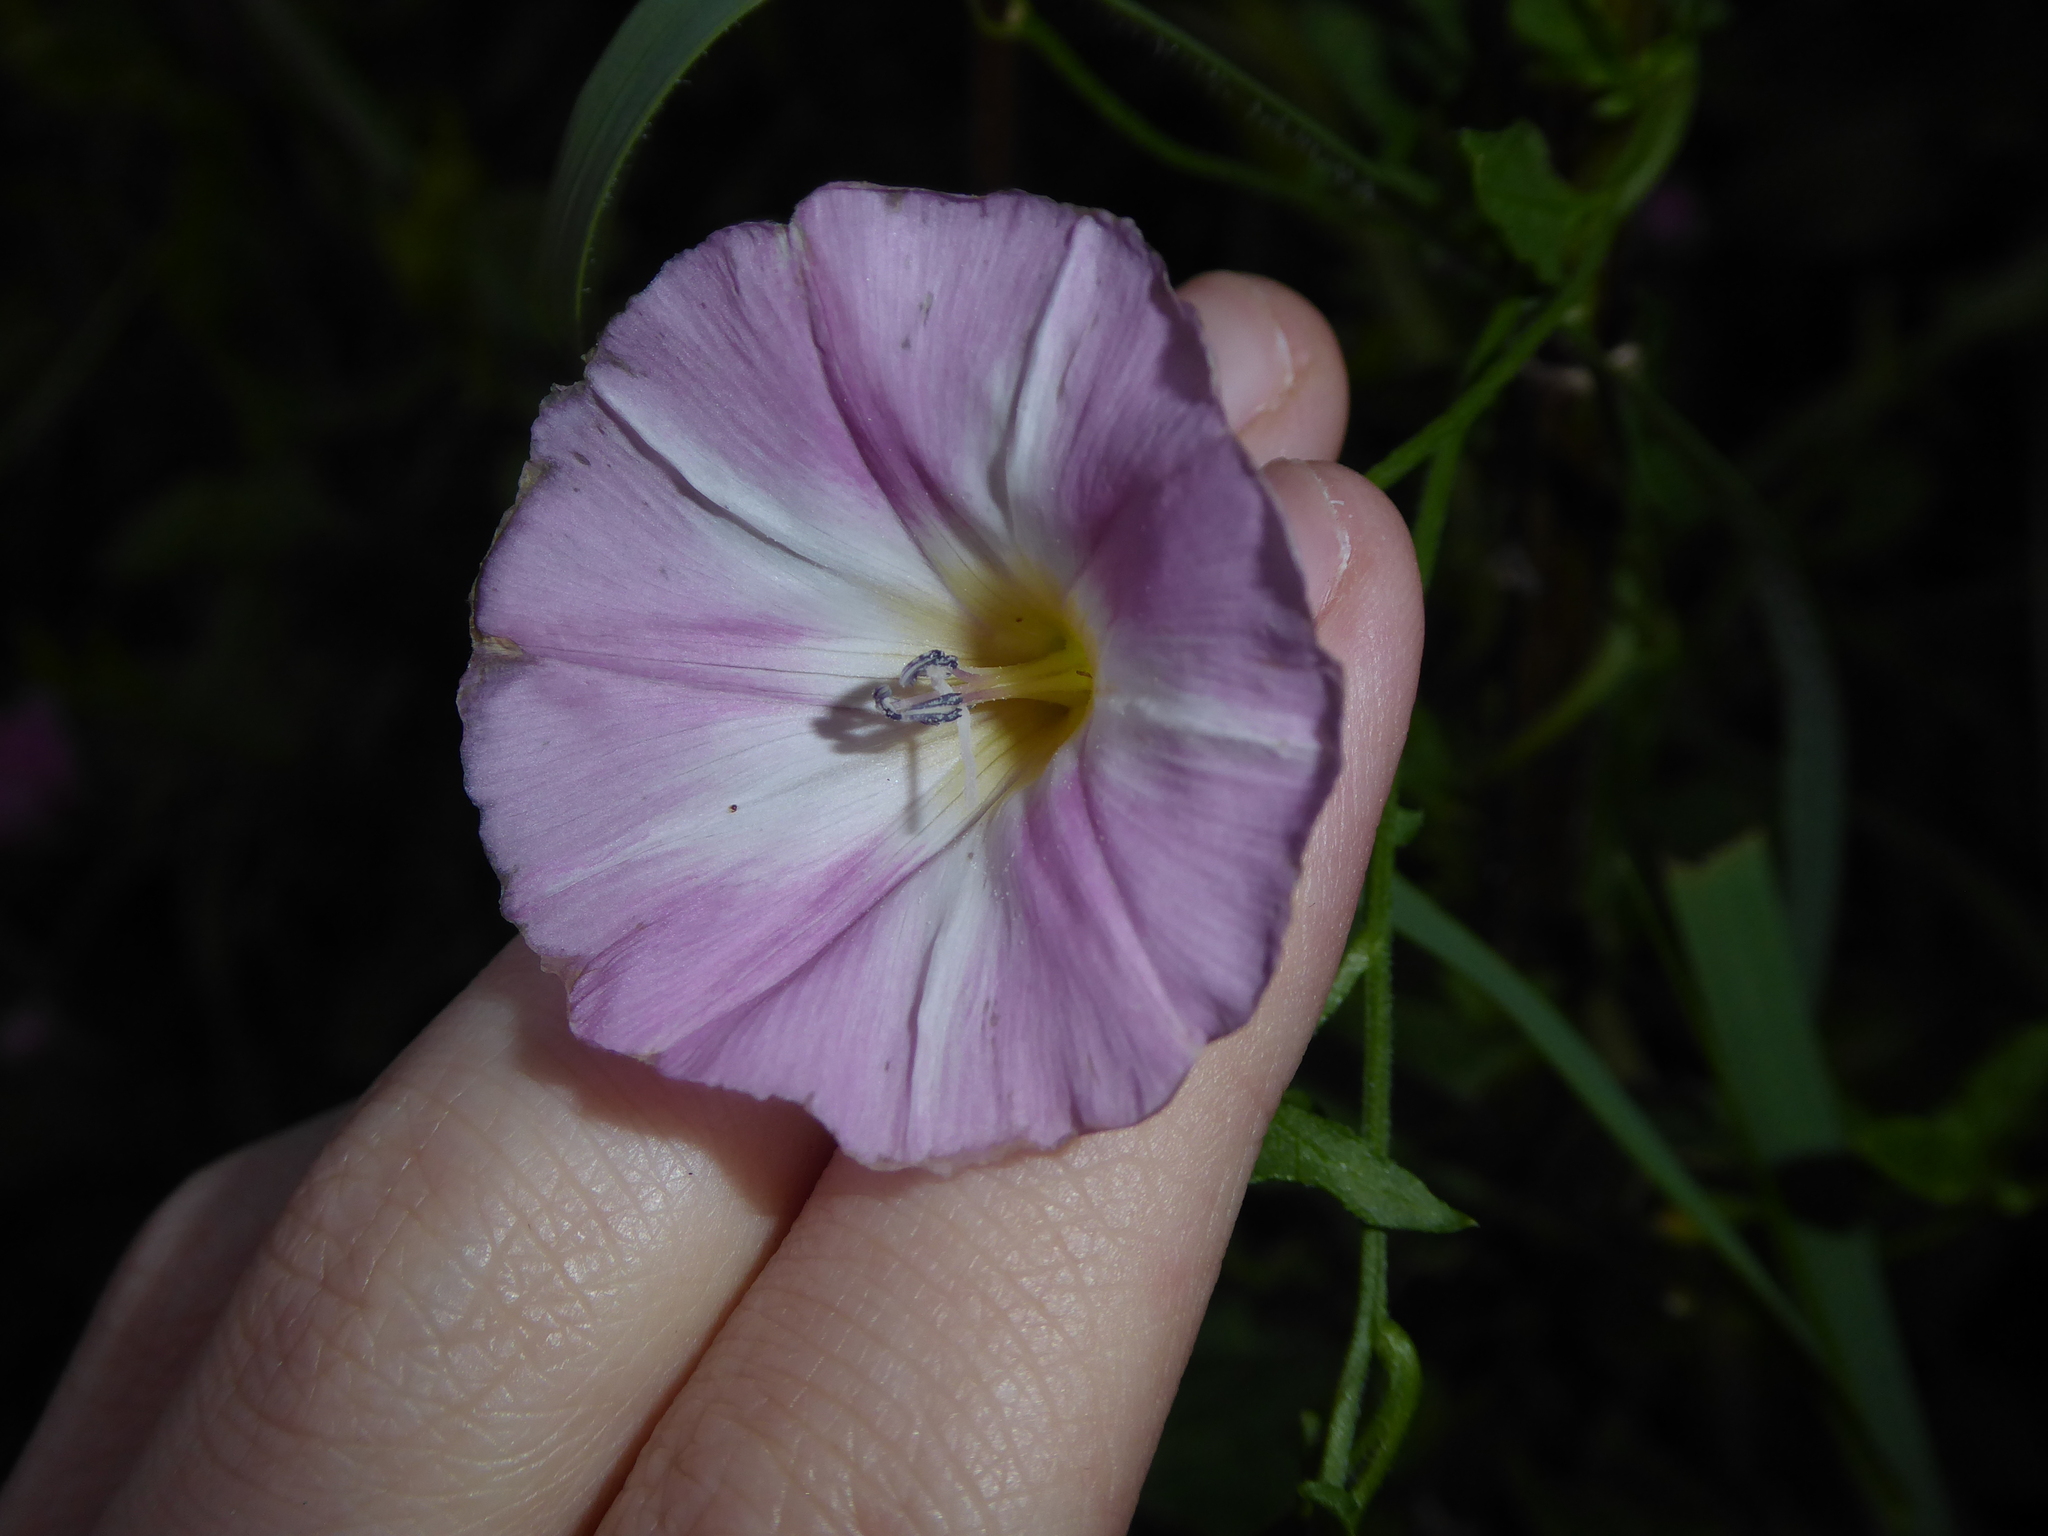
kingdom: Plantae
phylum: Tracheophyta
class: Magnoliopsida
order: Solanales
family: Convolvulaceae
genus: Convolvulus
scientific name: Convolvulus arvensis
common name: Field bindweed
